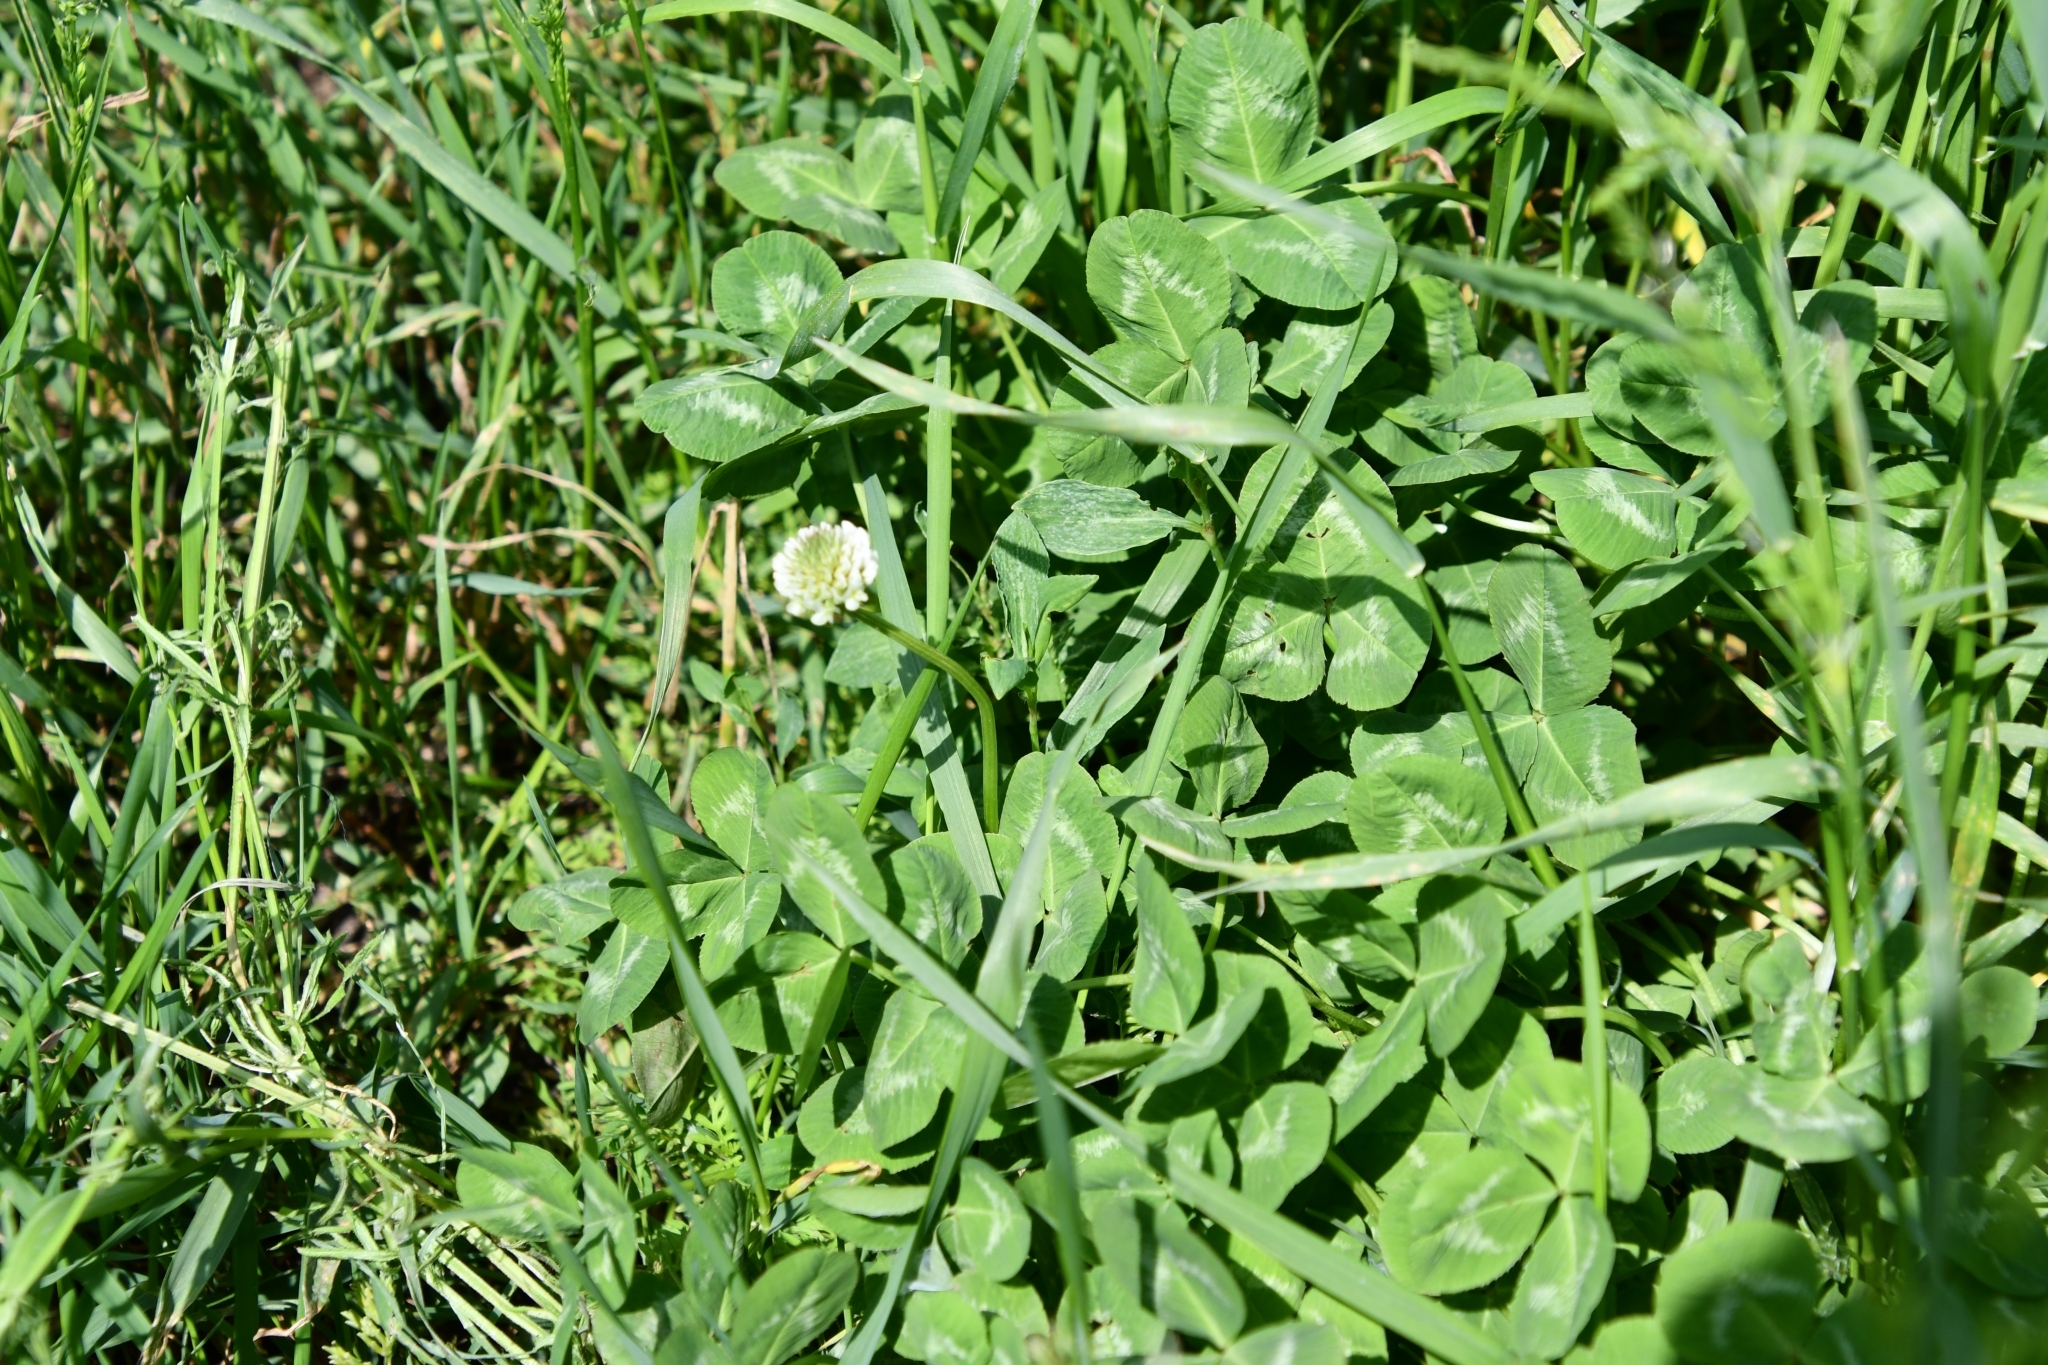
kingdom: Plantae
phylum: Tracheophyta
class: Magnoliopsida
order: Fabales
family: Fabaceae
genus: Trifolium
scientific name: Trifolium repens
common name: White clover
